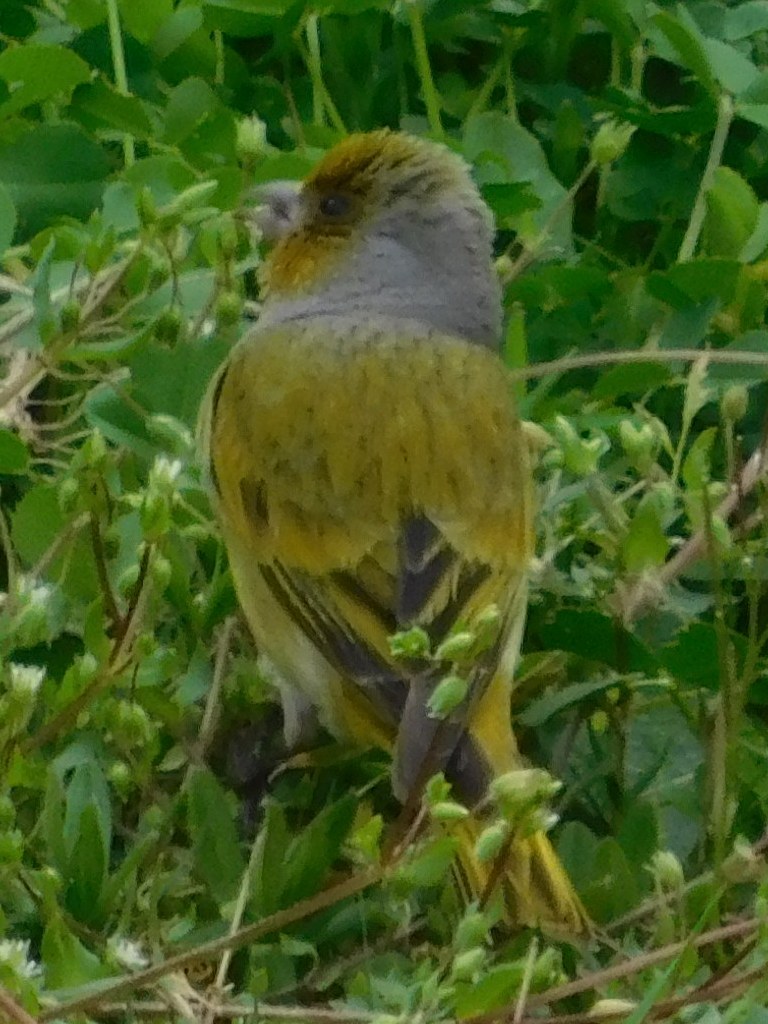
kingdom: Animalia
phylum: Chordata
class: Aves
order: Passeriformes
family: Fringillidae
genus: Serinus
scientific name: Serinus canicollis
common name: Cape canary
